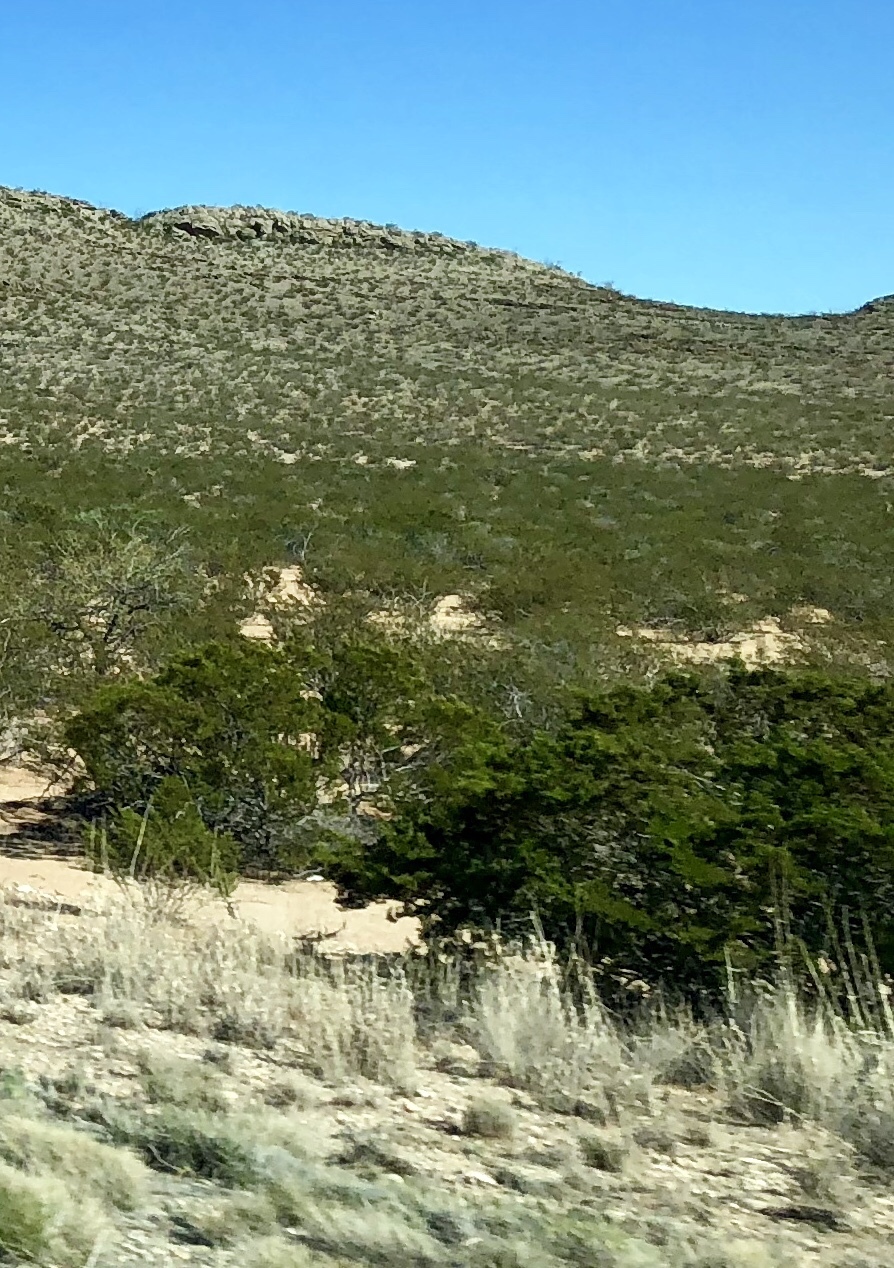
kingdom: Plantae
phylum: Tracheophyta
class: Magnoliopsida
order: Zygophyllales
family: Zygophyllaceae
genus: Larrea
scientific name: Larrea tridentata
